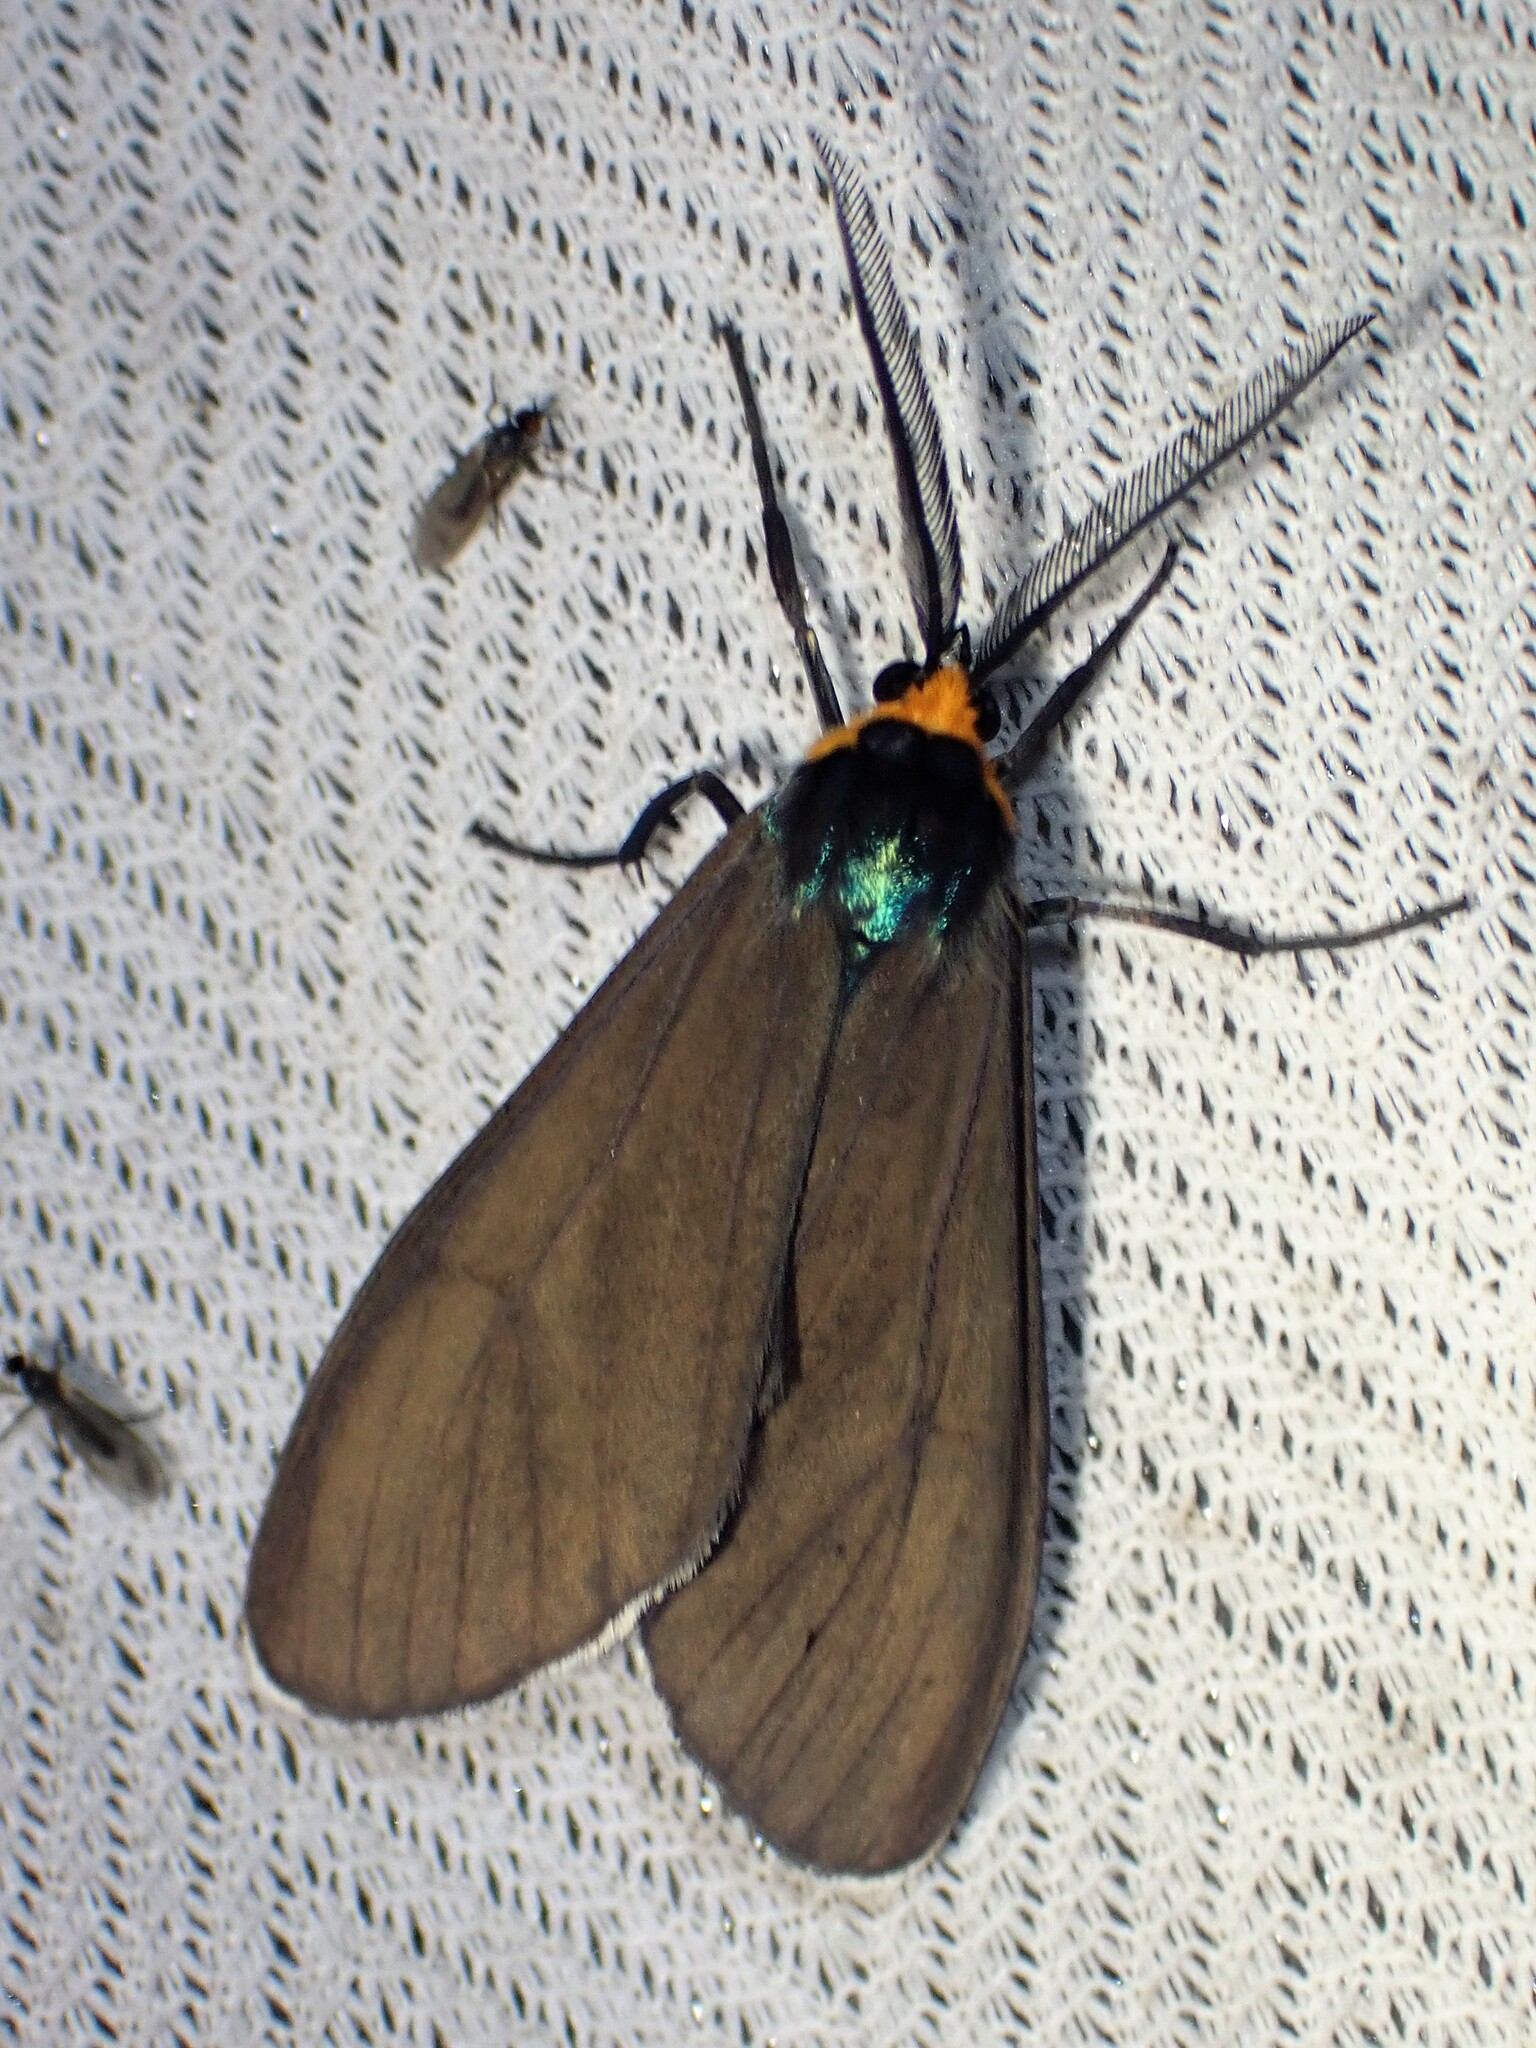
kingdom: Animalia
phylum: Arthropoda
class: Insecta
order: Lepidoptera
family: Erebidae
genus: Ctenucha
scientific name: Ctenucha virginica
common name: Virginia ctenucha moth
